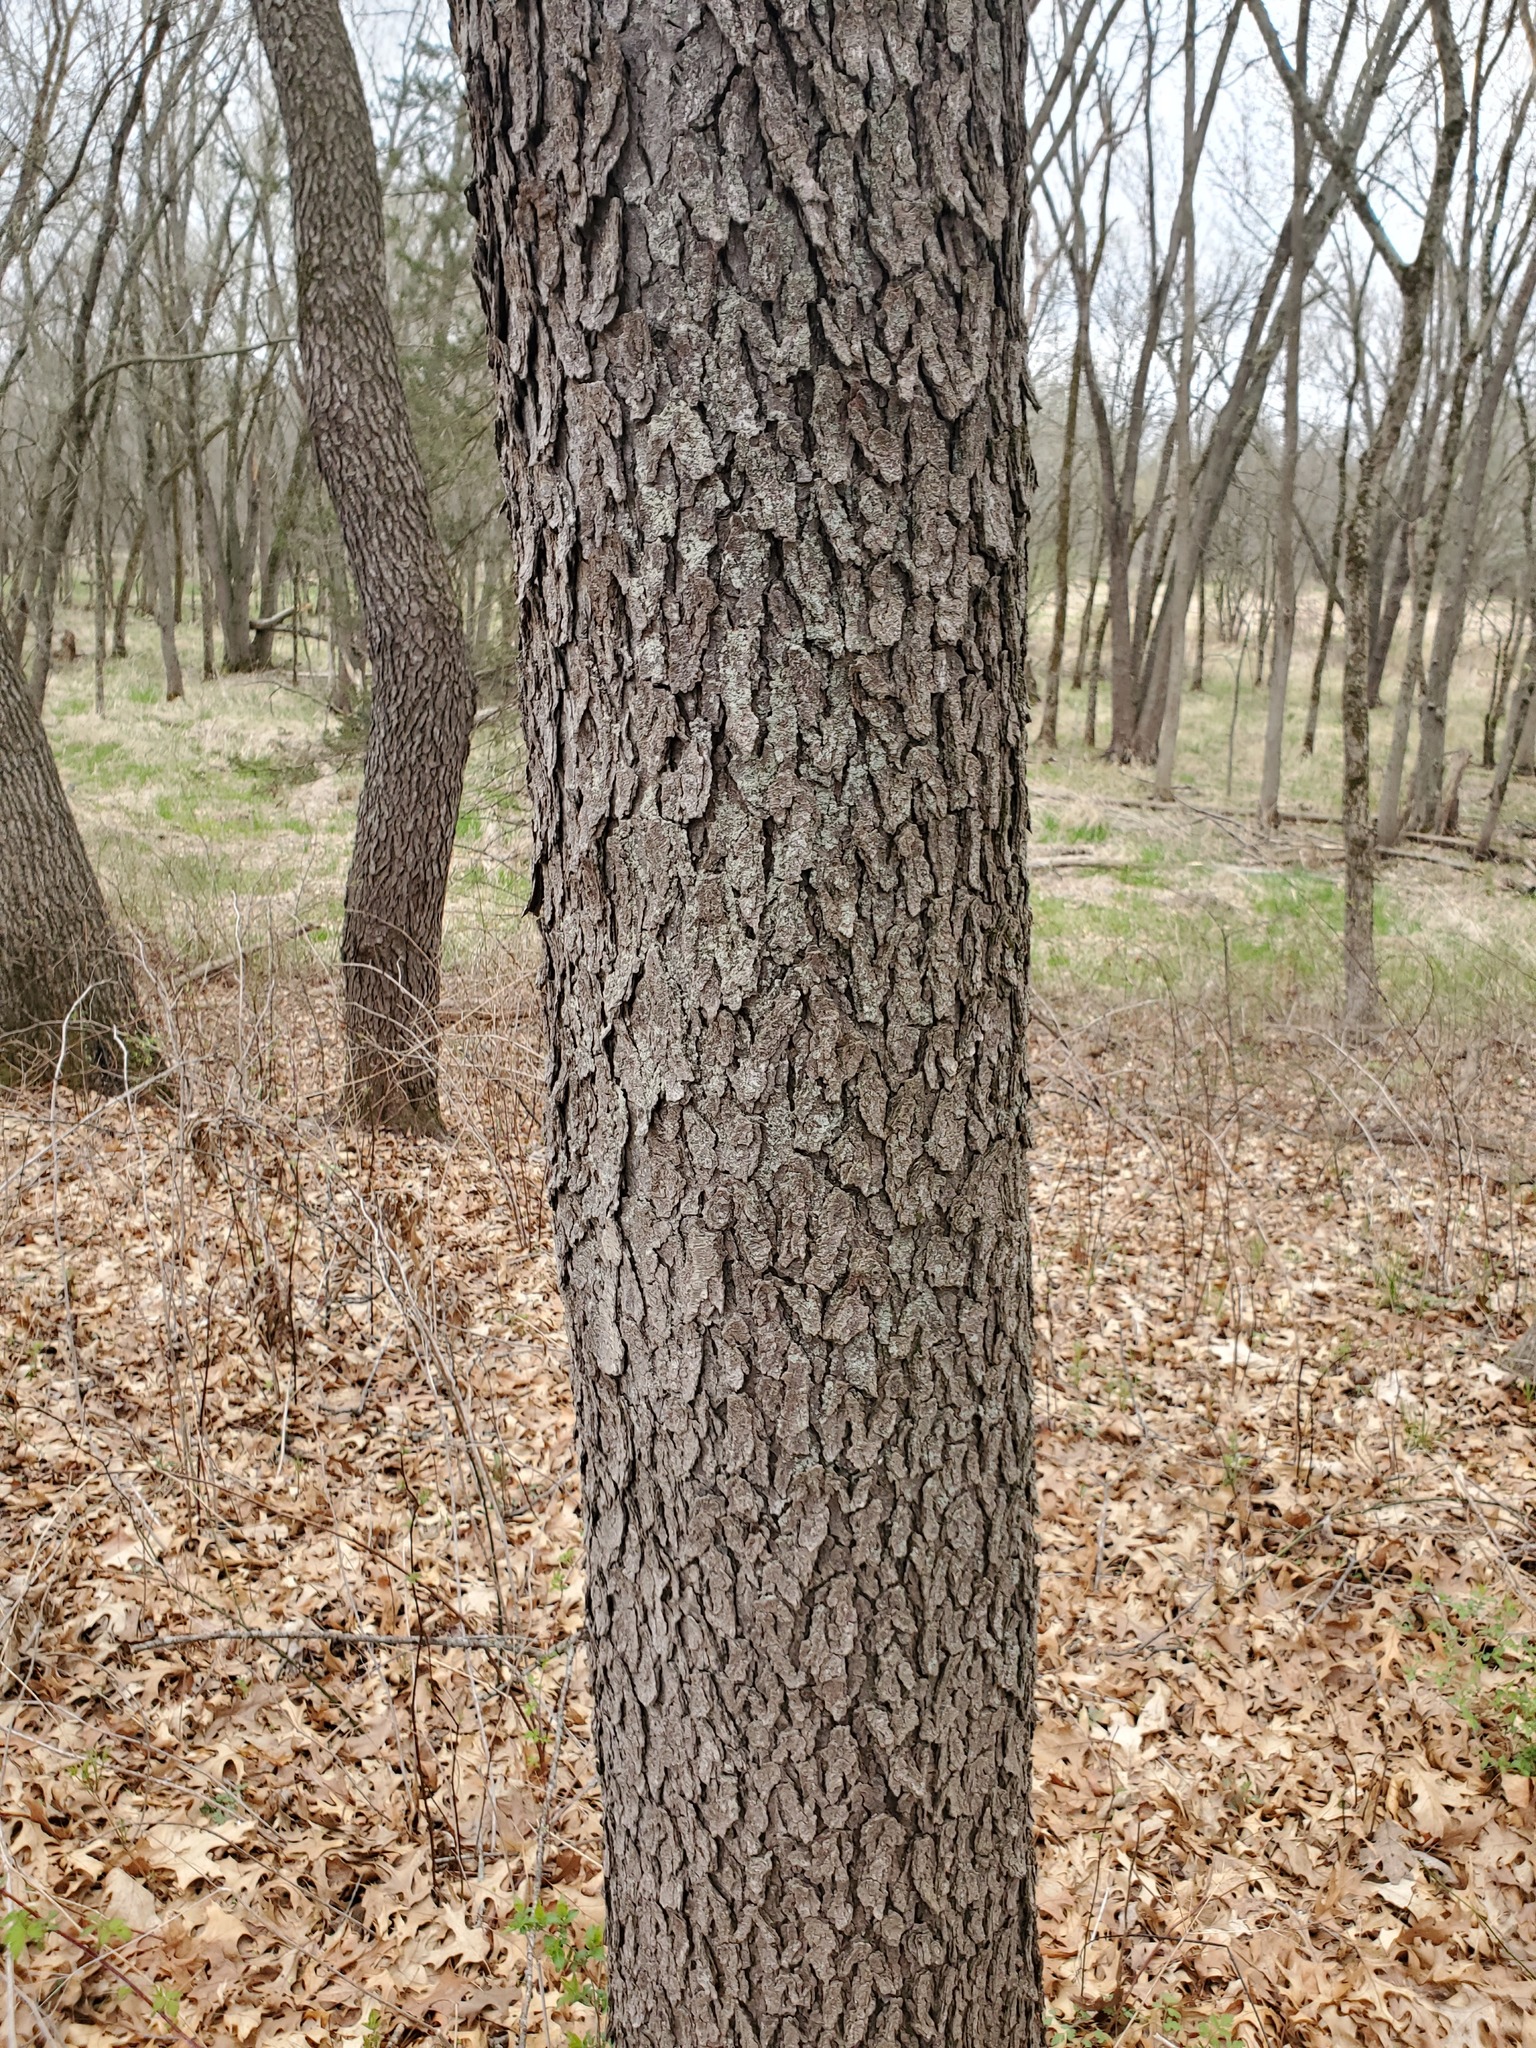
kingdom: Plantae
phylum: Tracheophyta
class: Magnoliopsida
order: Rosales
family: Rosaceae
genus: Prunus
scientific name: Prunus serotina
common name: Black cherry
